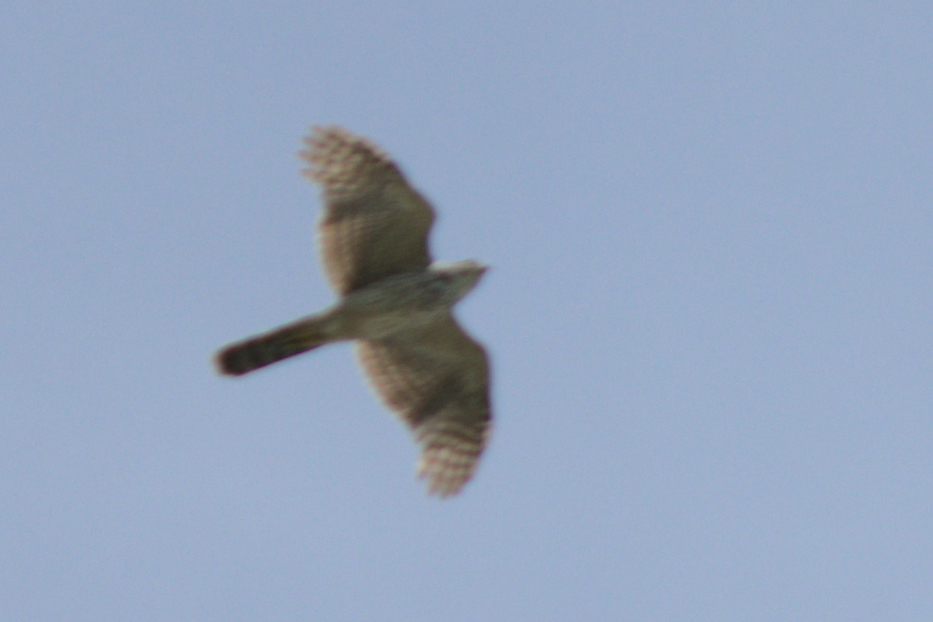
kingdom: Animalia
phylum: Chordata
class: Aves
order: Accipitriformes
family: Accipitridae
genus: Accipiter
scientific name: Accipiter cooperii
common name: Cooper's hawk
